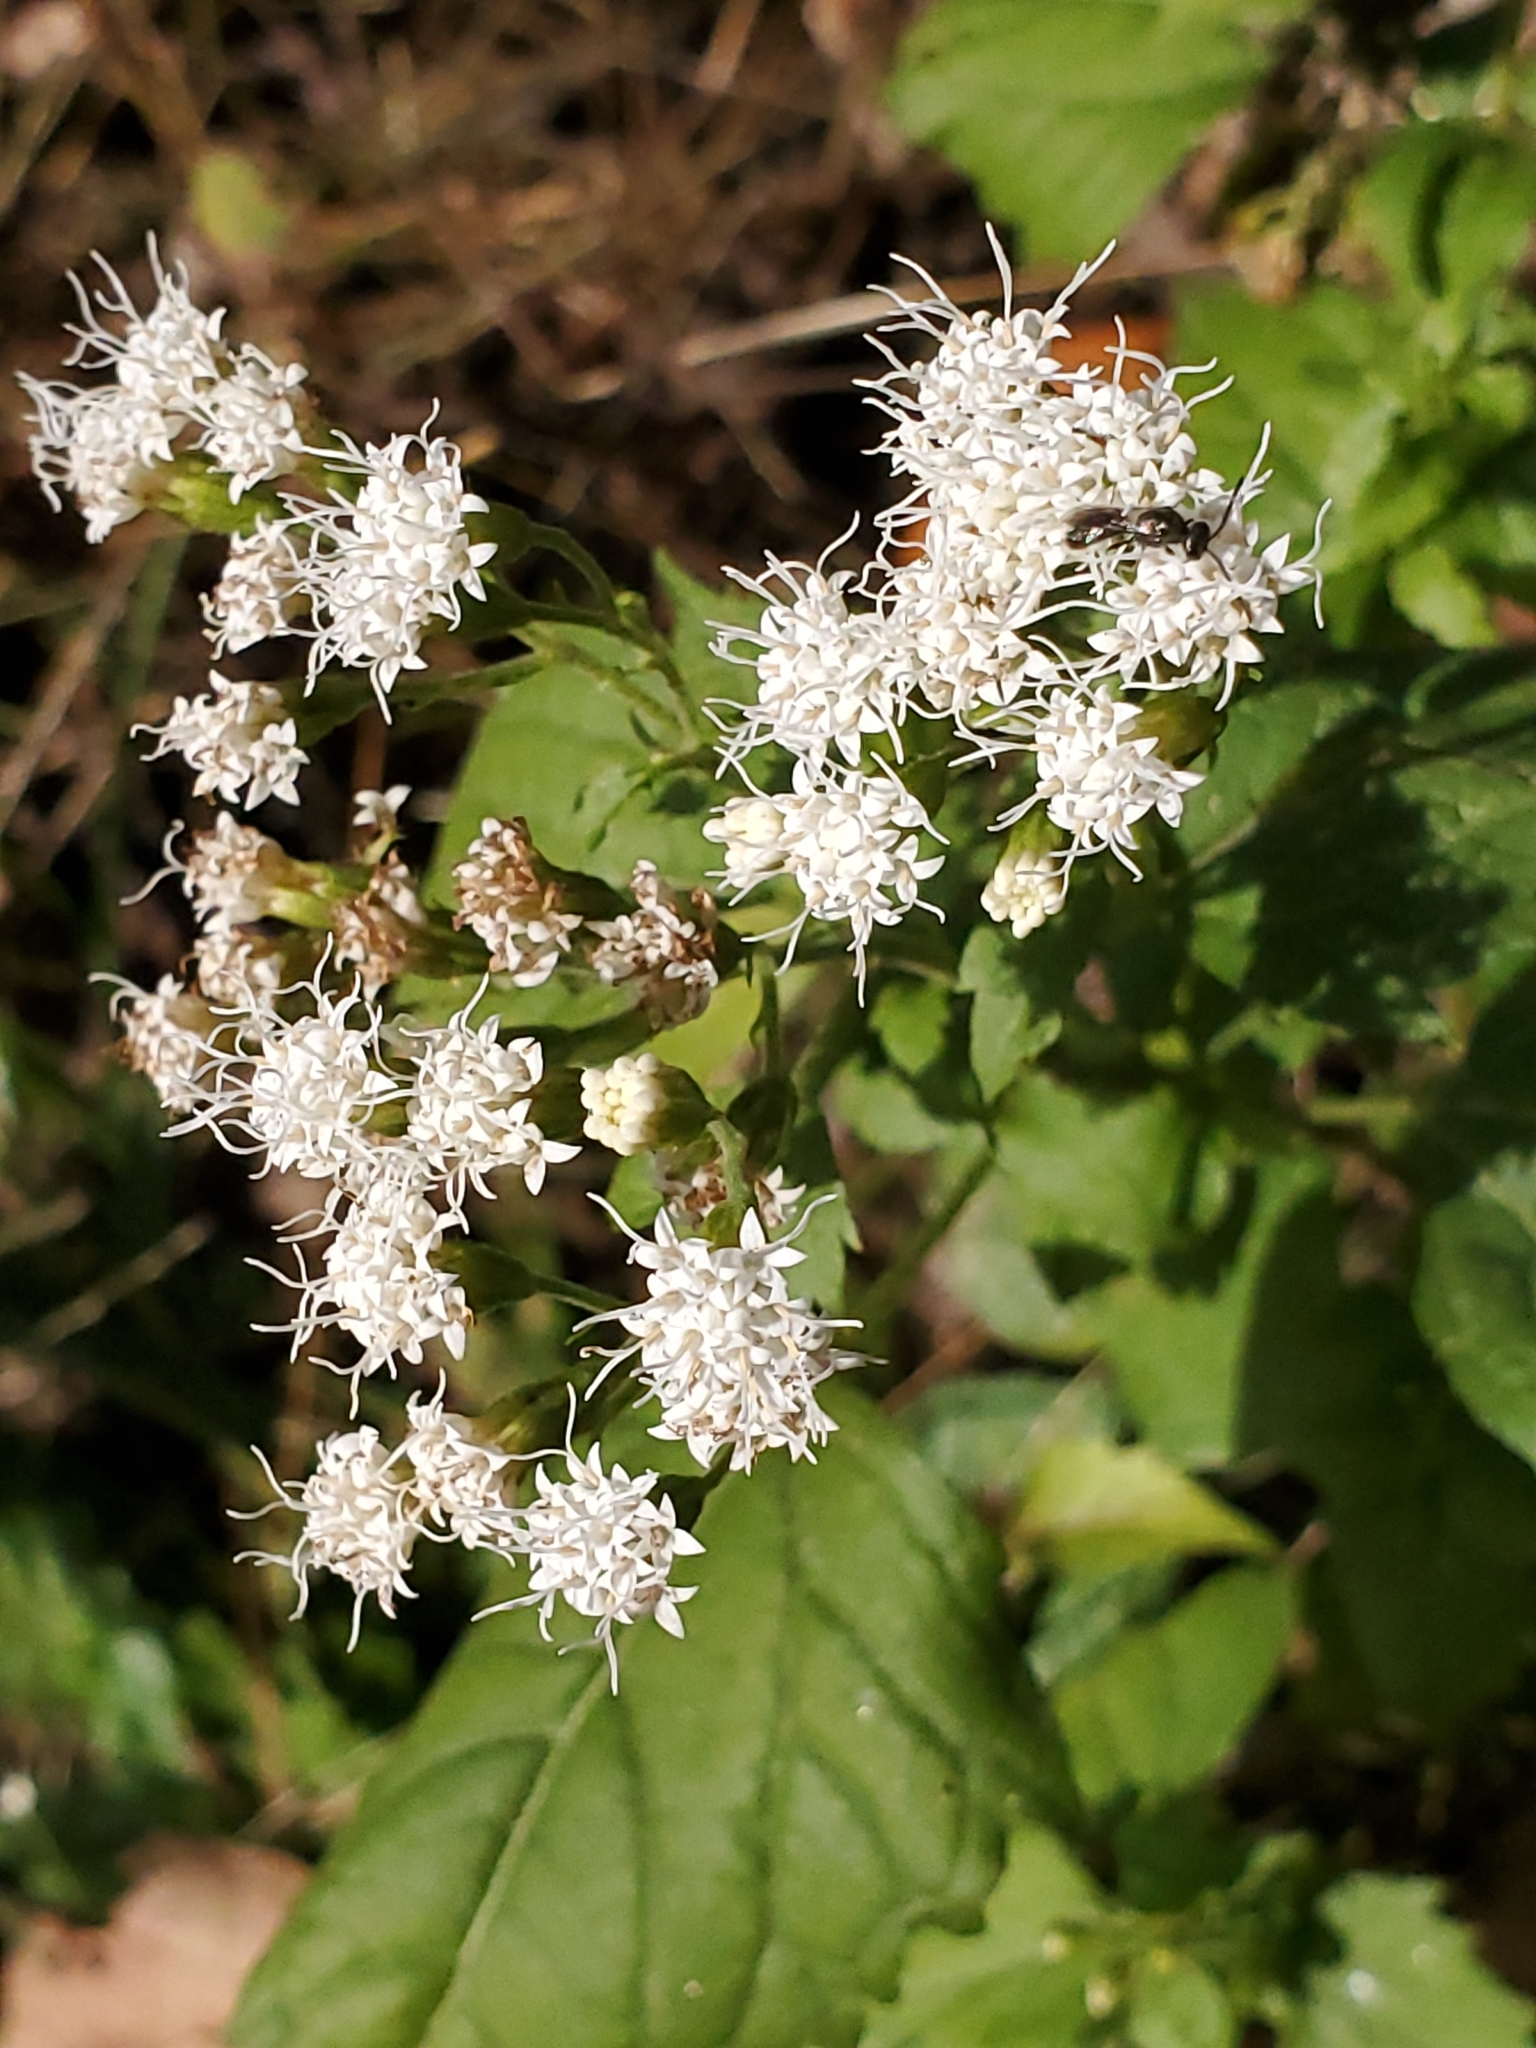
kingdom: Plantae
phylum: Tracheophyta
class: Magnoliopsida
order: Asterales
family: Asteraceae
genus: Ageratina
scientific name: Ageratina altissima
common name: White snakeroot
